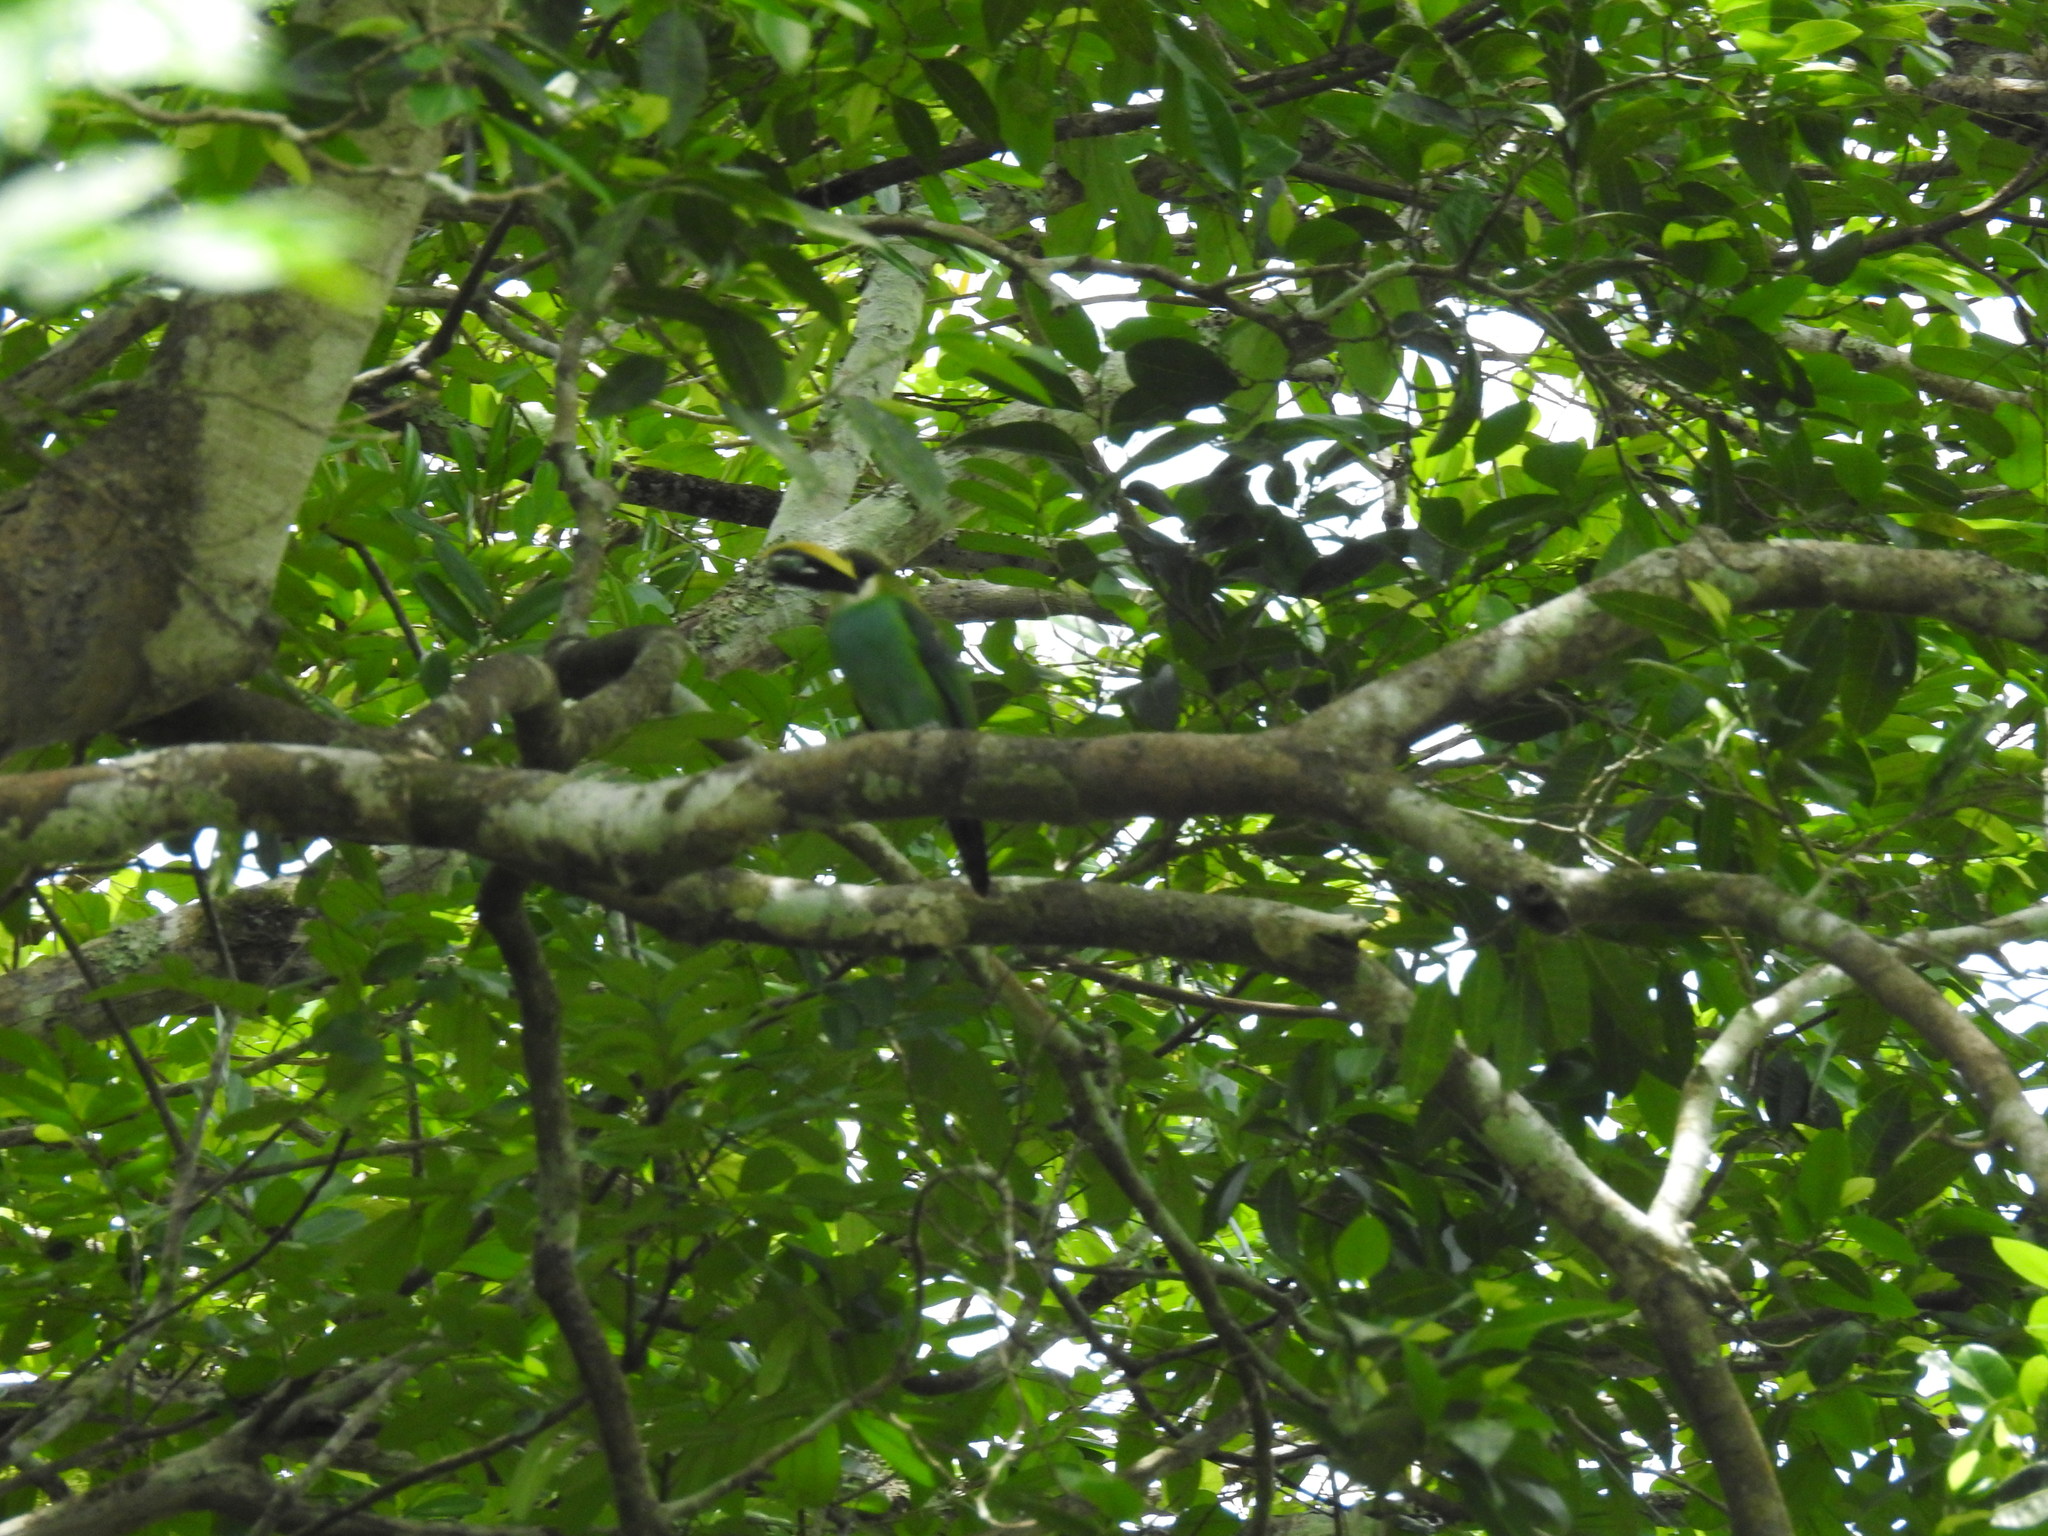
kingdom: Animalia
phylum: Chordata
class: Aves
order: Piciformes
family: Ramphastidae
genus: Aulacorhynchus
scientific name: Aulacorhynchus prasinus
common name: Emerald toucanet
